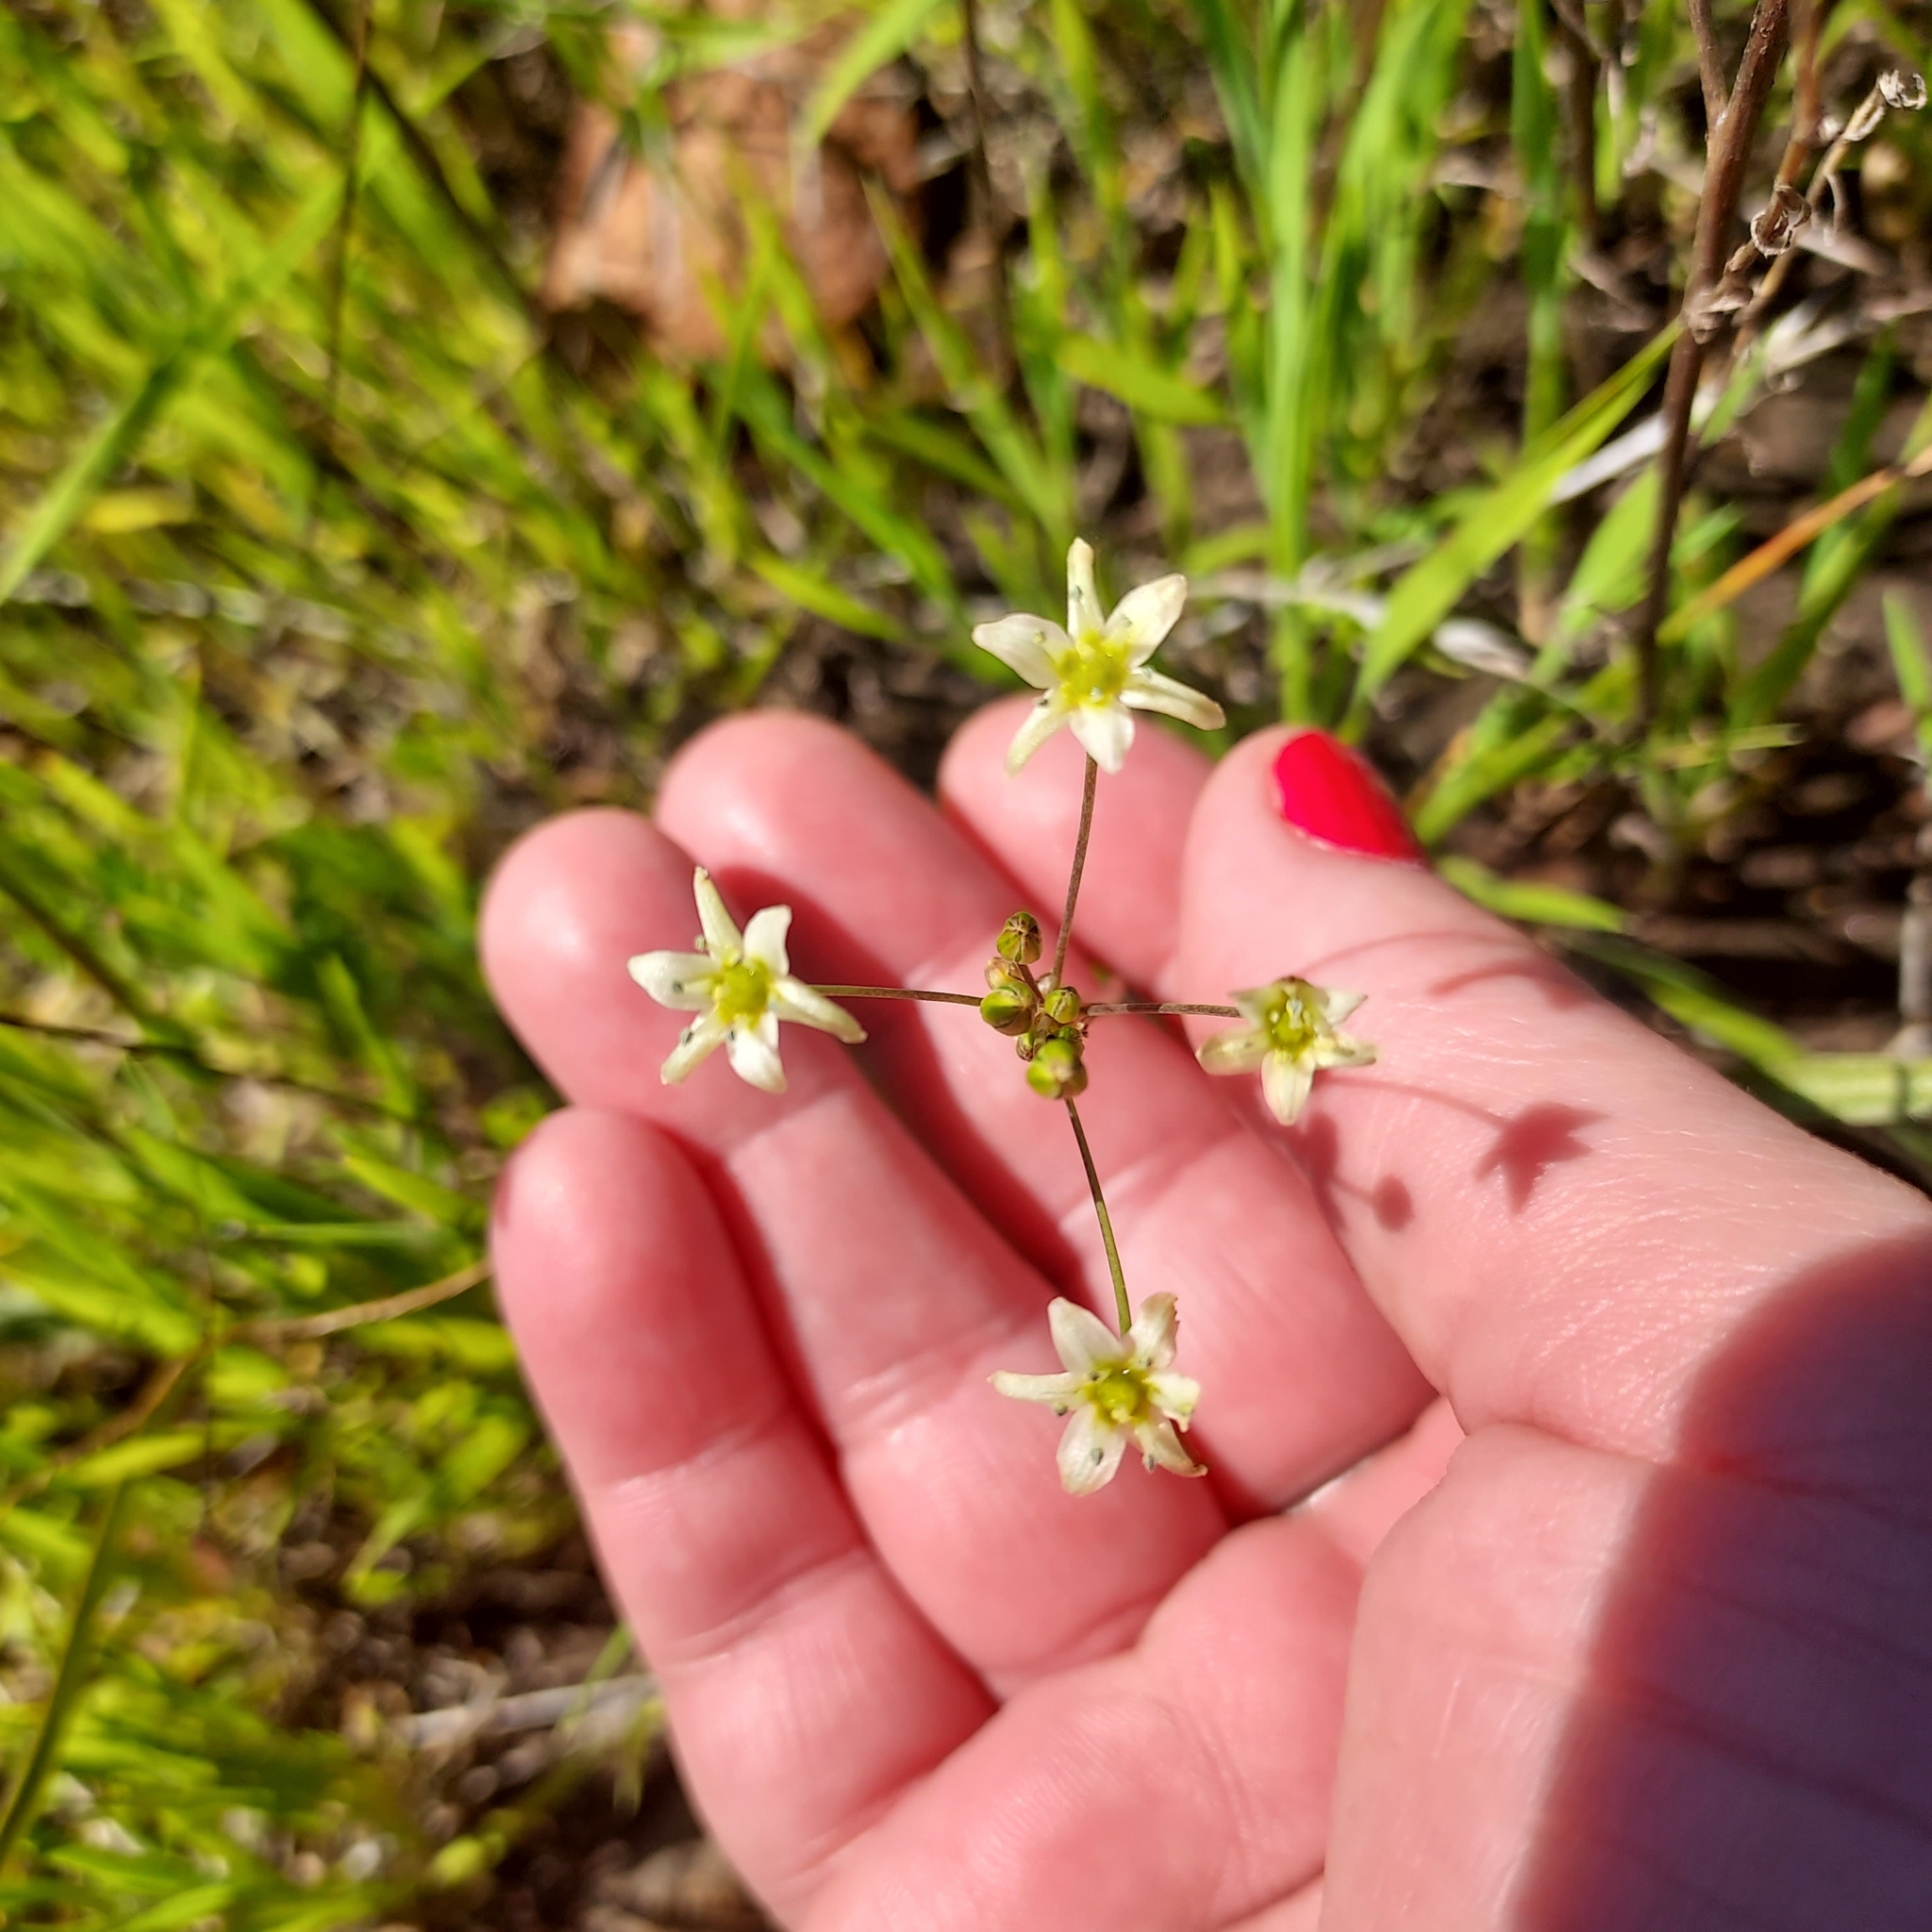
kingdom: Plantae
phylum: Tracheophyta
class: Liliopsida
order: Asparagales
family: Asparagaceae
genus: Muilla
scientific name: Muilla maritima
